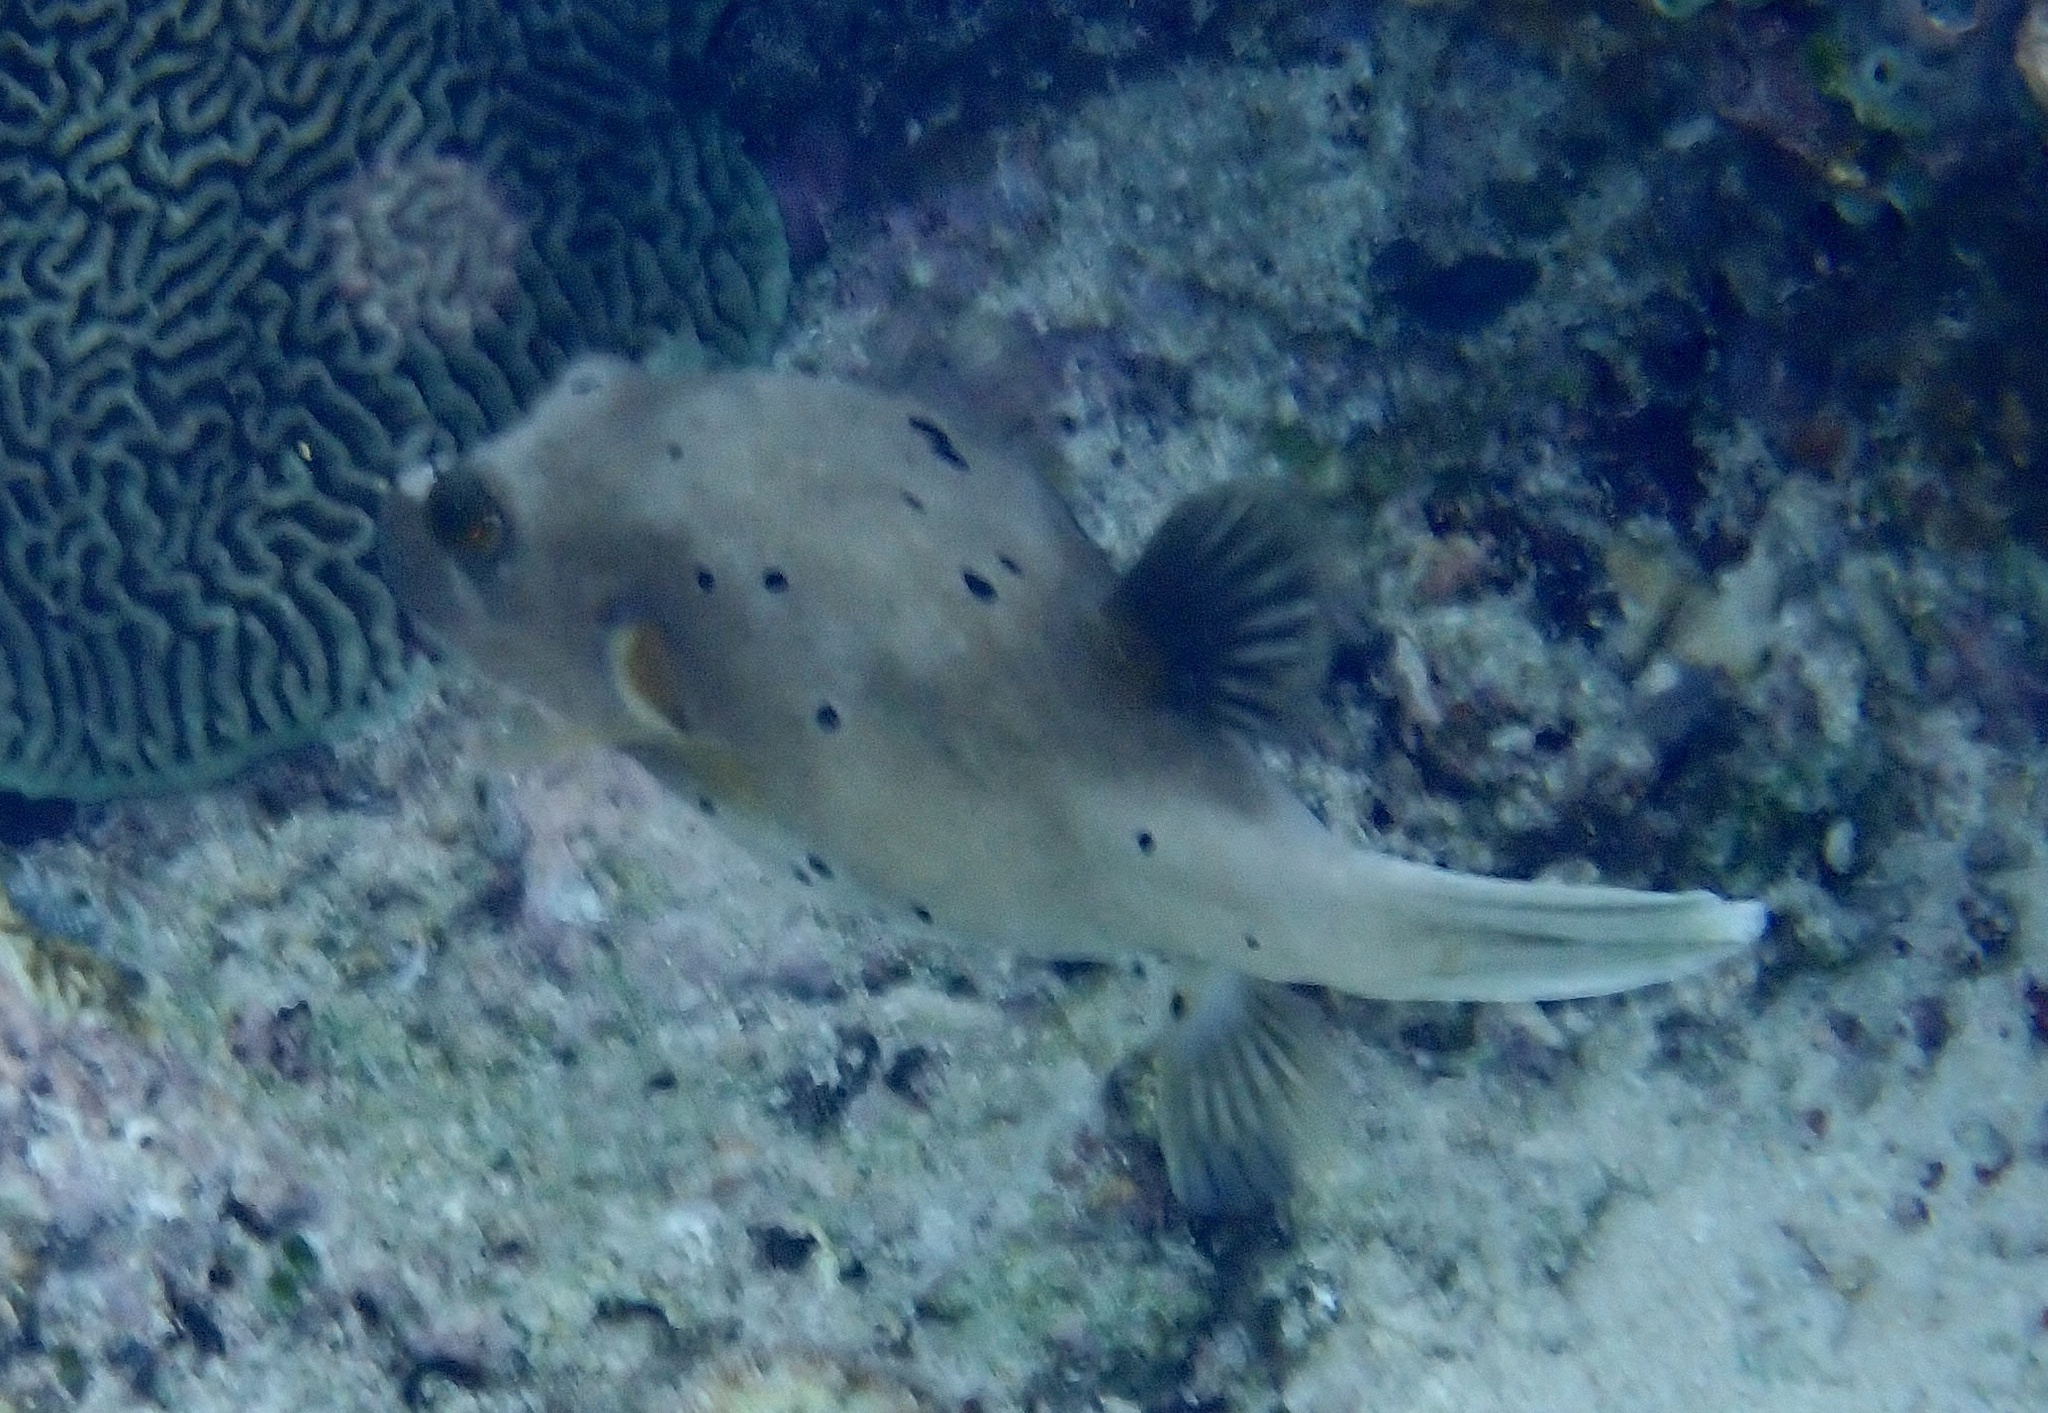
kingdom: Animalia
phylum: Chordata
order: Tetraodontiformes
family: Tetraodontidae
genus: Arothron
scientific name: Arothron nigropunctatus
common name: Black spotted blow fish
